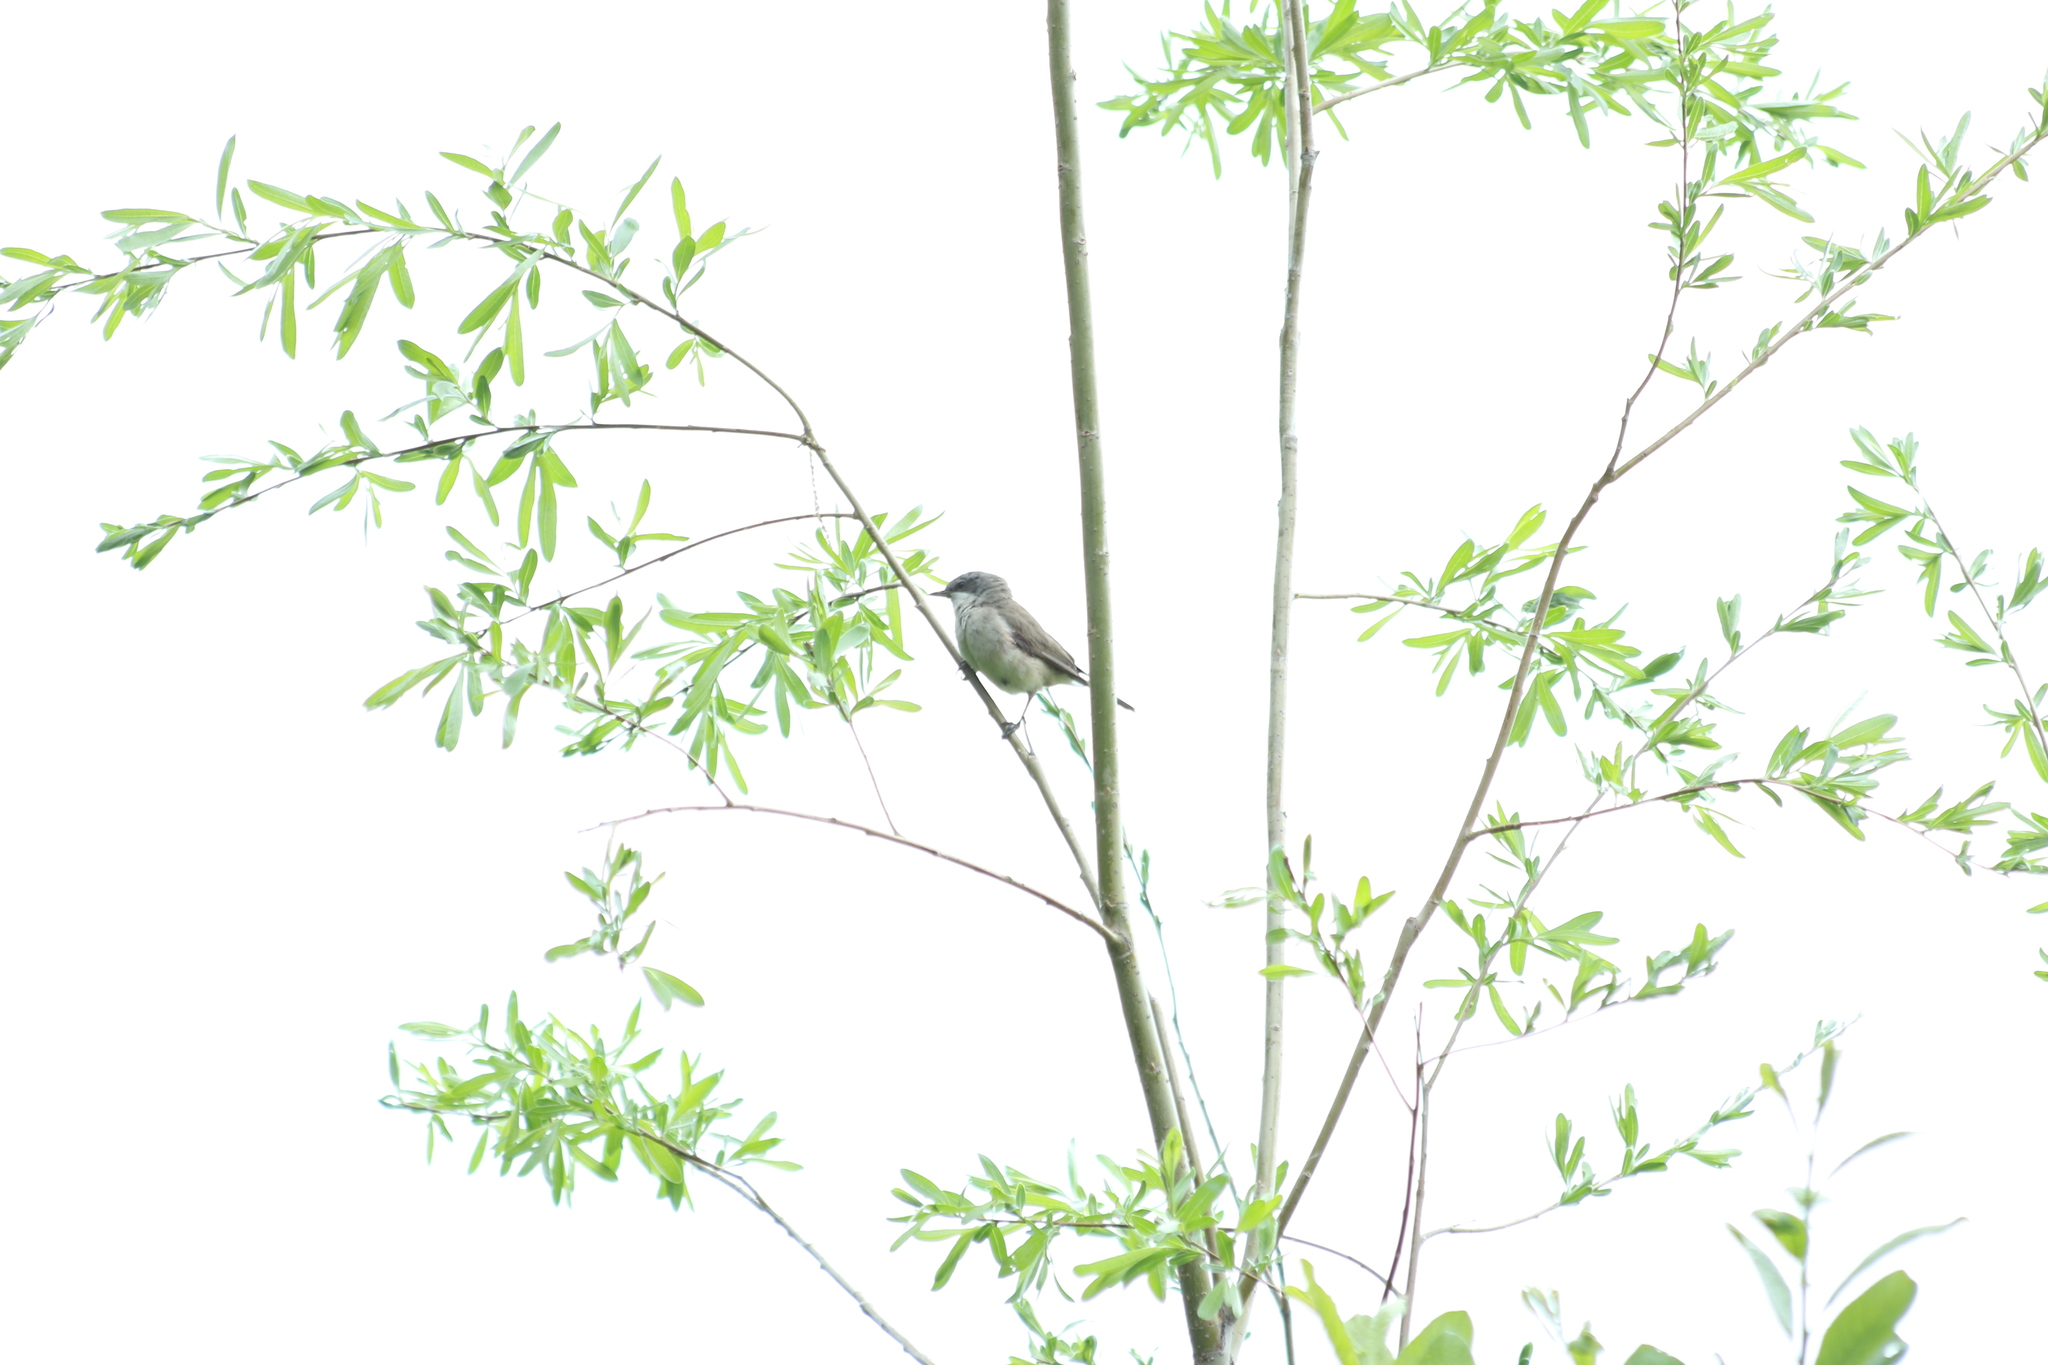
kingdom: Animalia
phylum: Chordata
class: Aves
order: Passeriformes
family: Sylviidae
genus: Sylvia
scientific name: Sylvia curruca
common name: Lesser whitethroat
